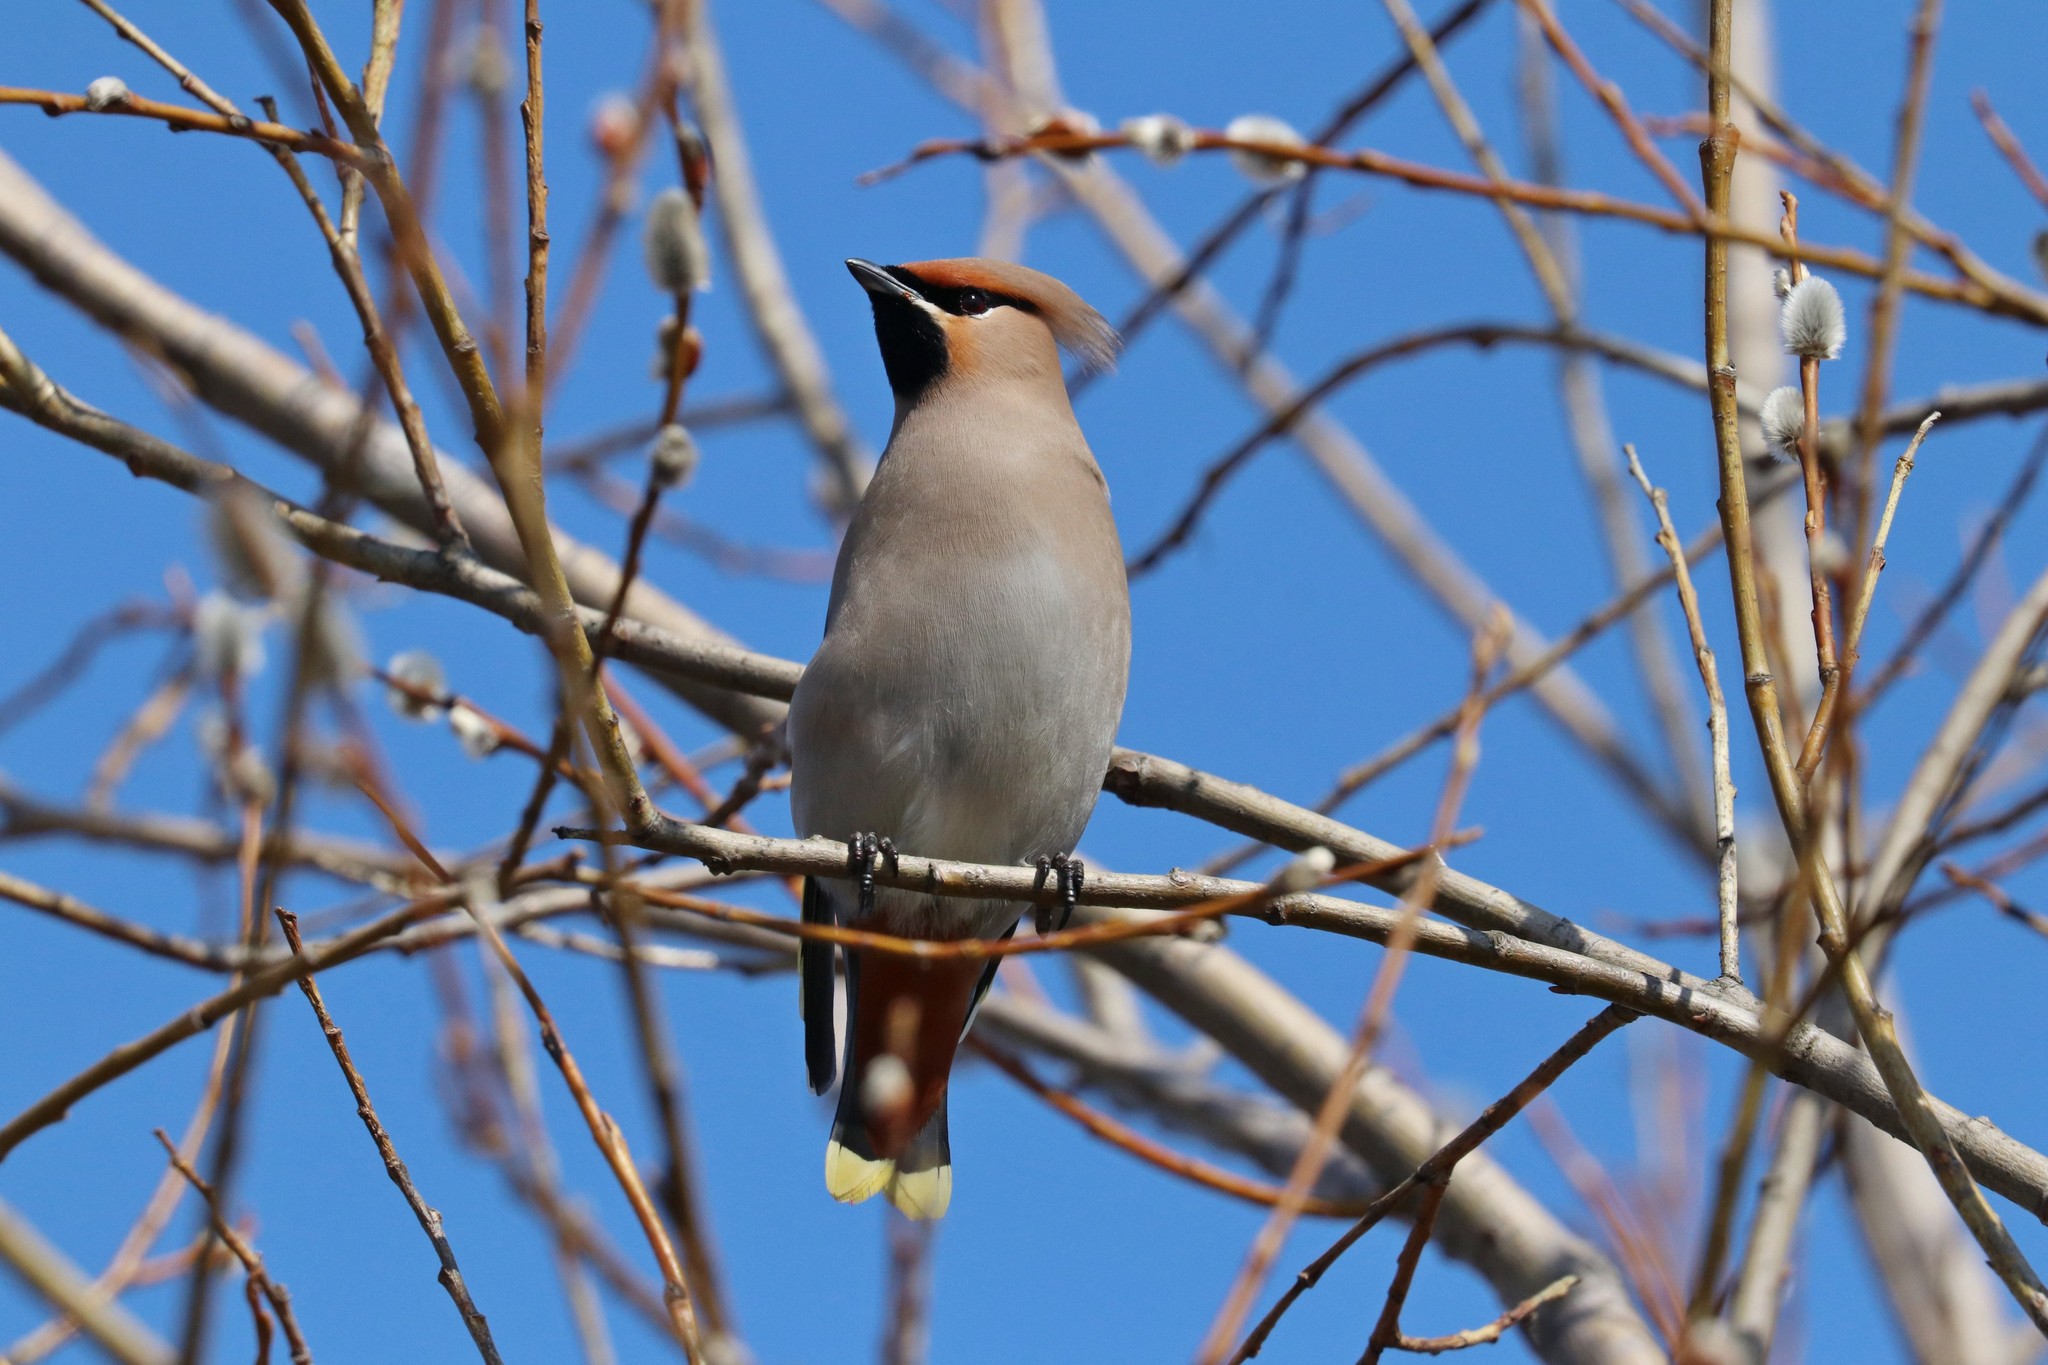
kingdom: Animalia
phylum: Chordata
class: Aves
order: Passeriformes
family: Bombycillidae
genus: Bombycilla
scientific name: Bombycilla garrulus
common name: Bohemian waxwing
